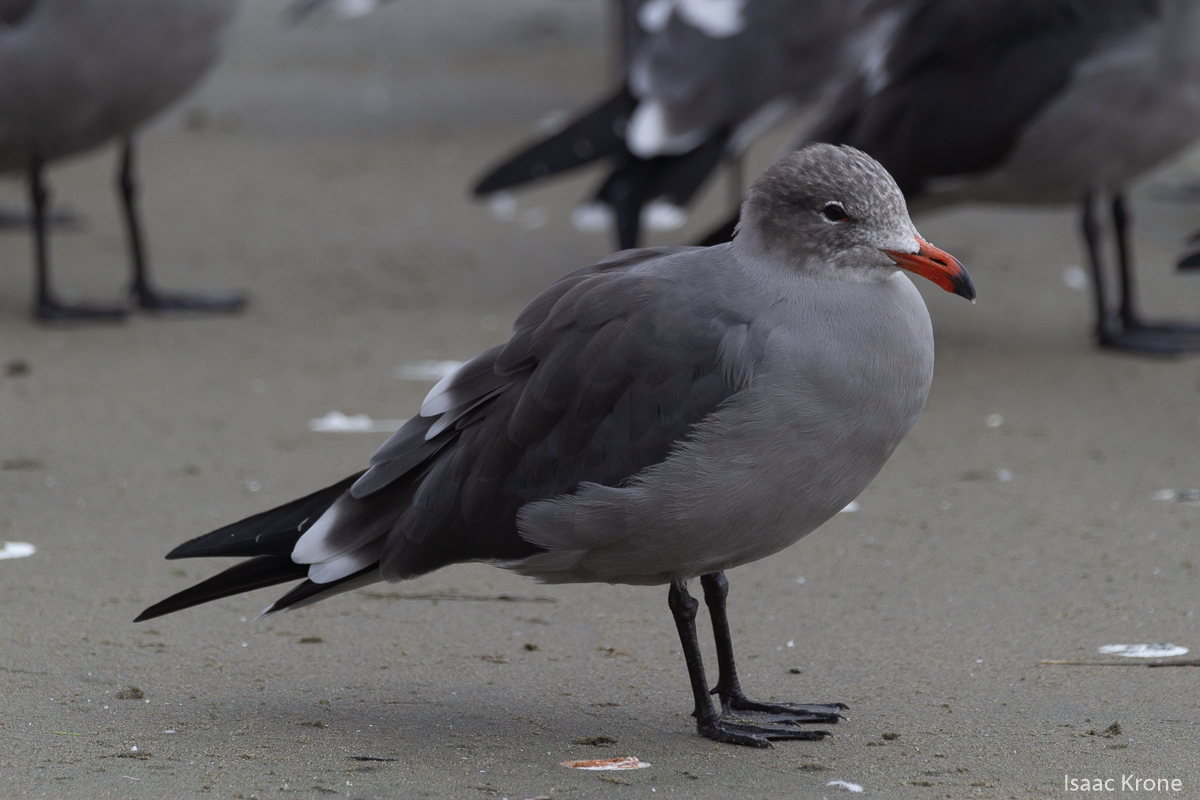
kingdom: Animalia
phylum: Chordata
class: Aves
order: Charadriiformes
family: Laridae
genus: Larus
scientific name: Larus heermanni
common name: Heermann's gull
